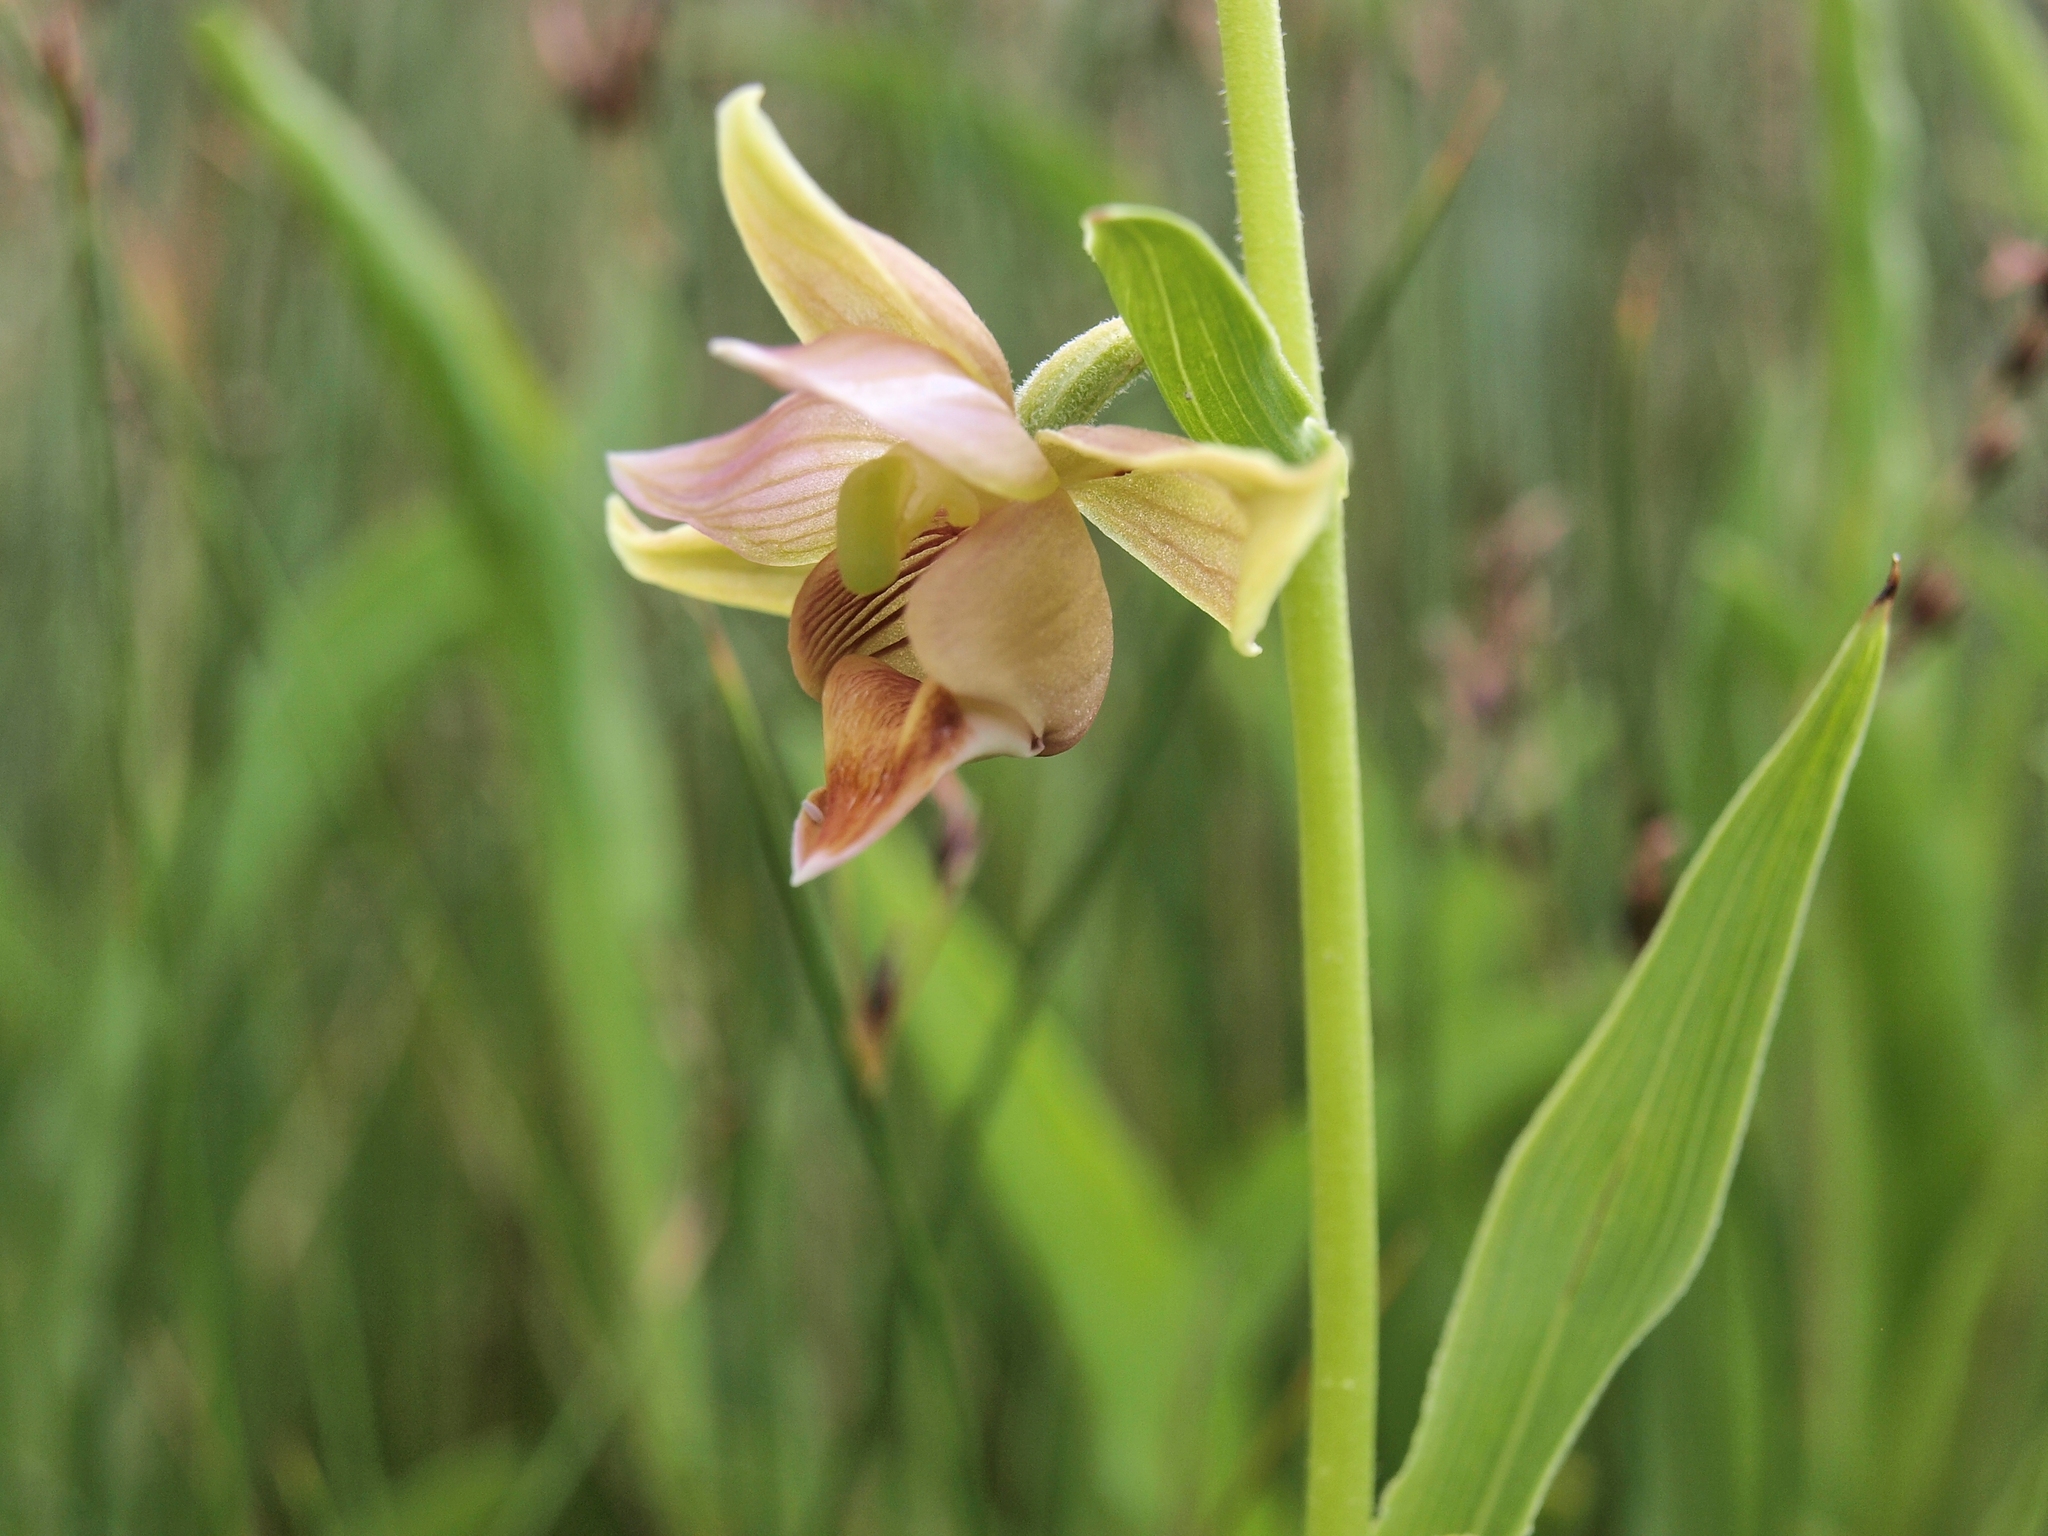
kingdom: Plantae
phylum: Tracheophyta
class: Liliopsida
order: Asparagales
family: Orchidaceae
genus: Epipactis
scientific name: Epipactis gigantea
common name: Chatterbox
